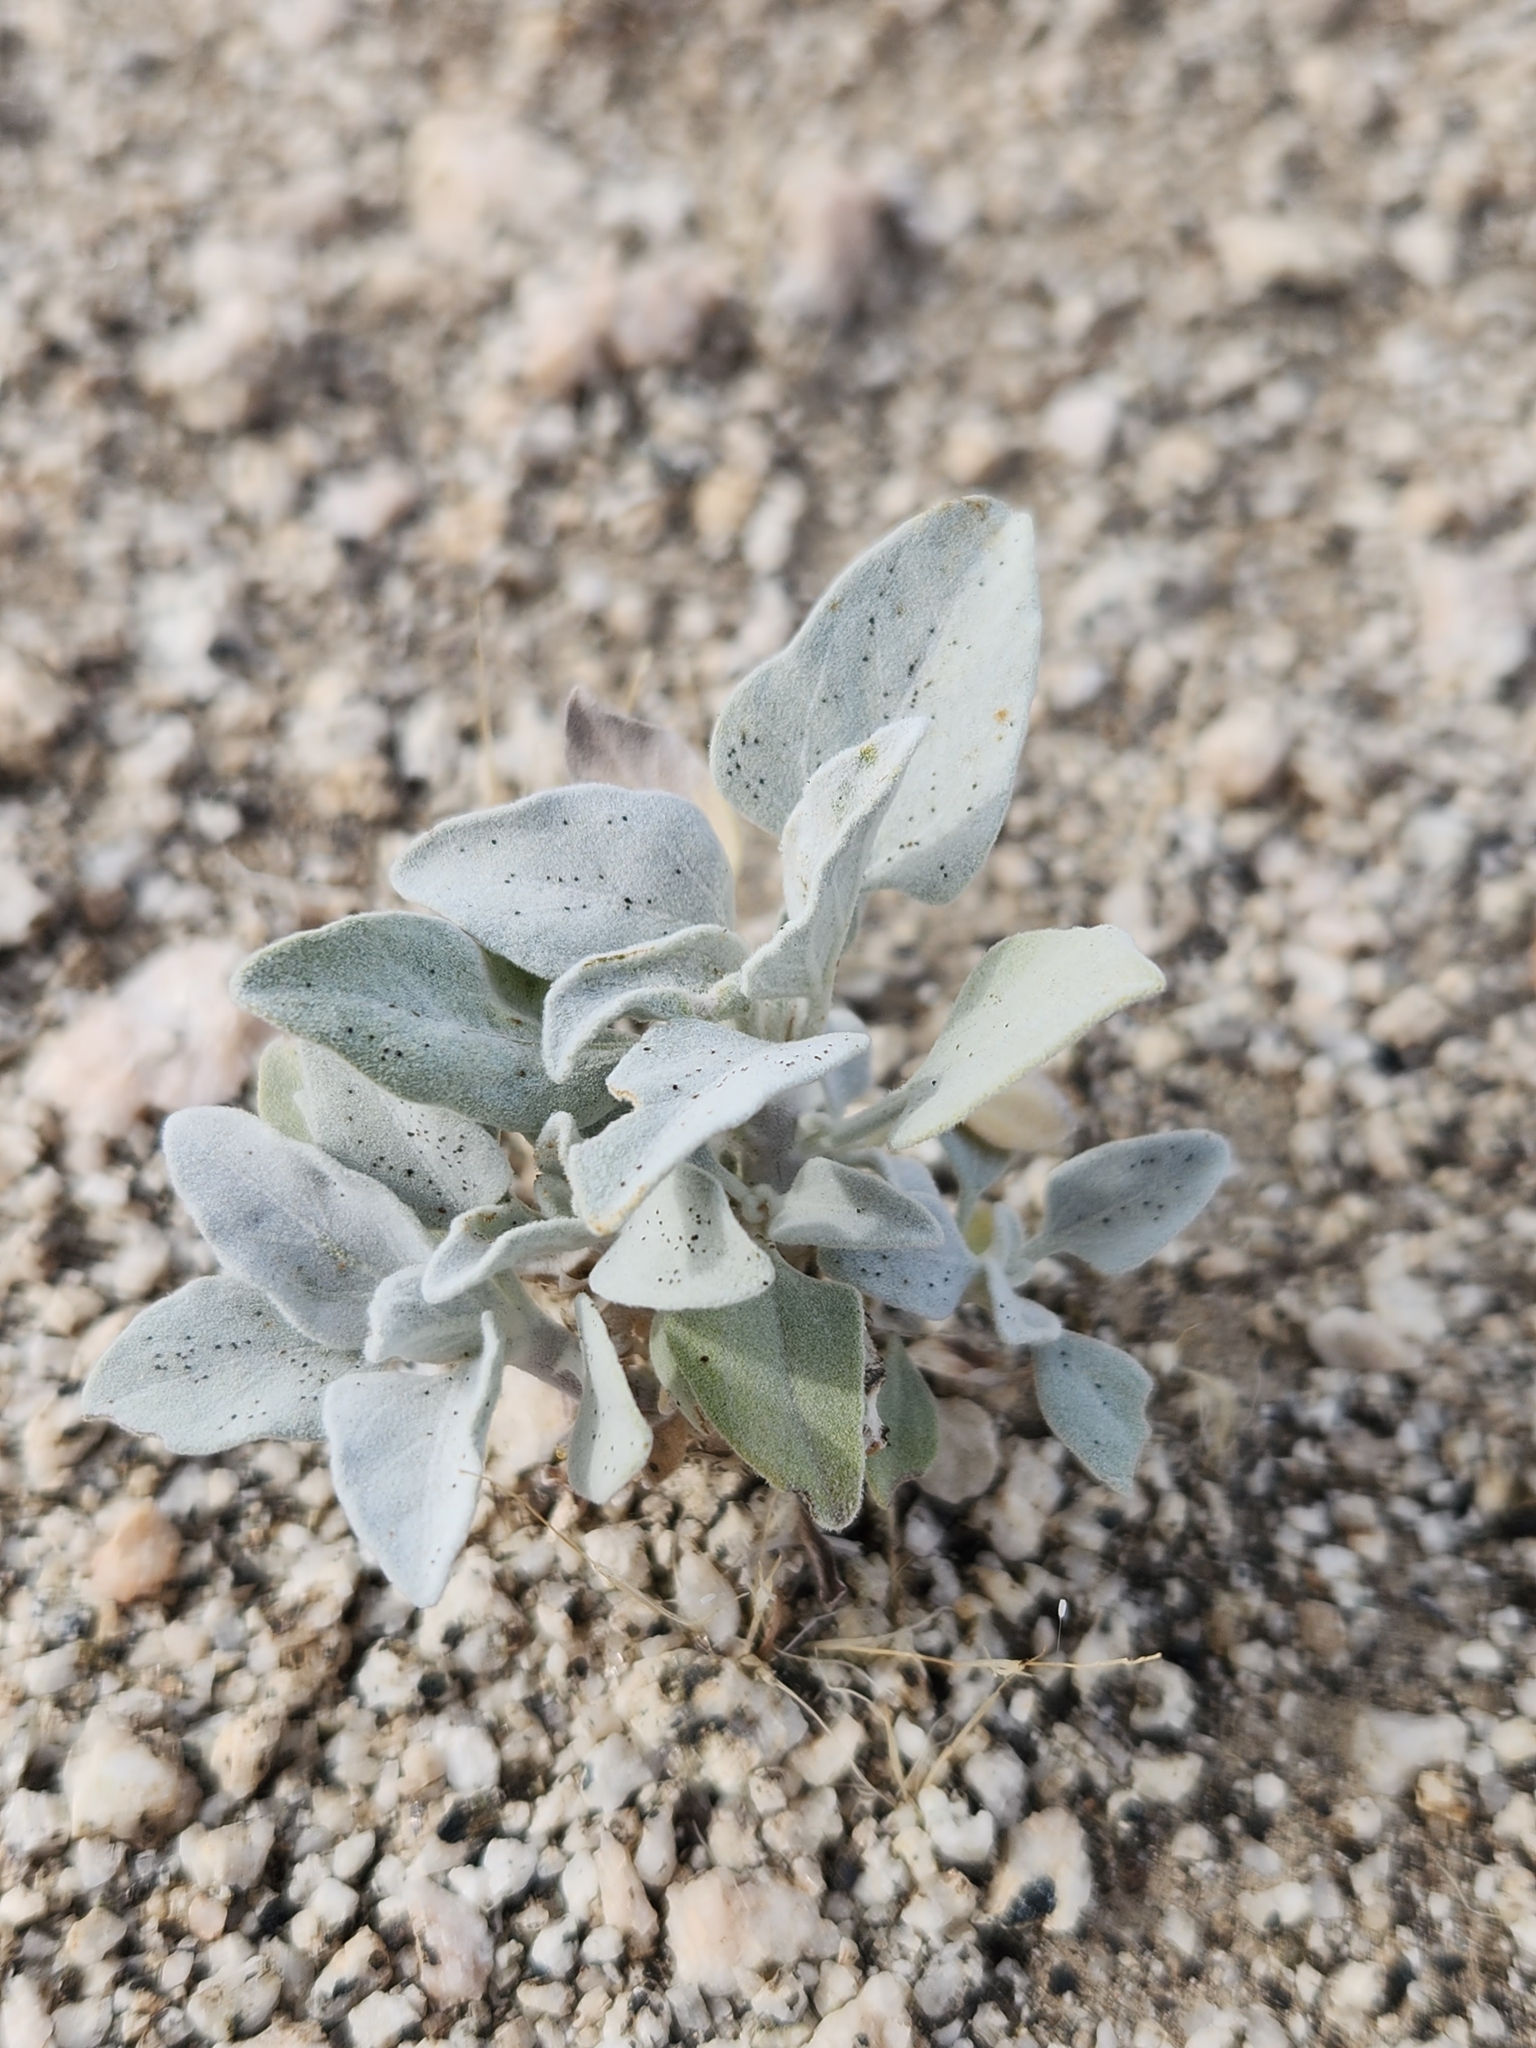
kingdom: Plantae
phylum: Tracheophyta
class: Magnoliopsida
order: Asterales
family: Asteraceae
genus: Encelia
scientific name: Encelia farinosa
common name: Brittlebush
